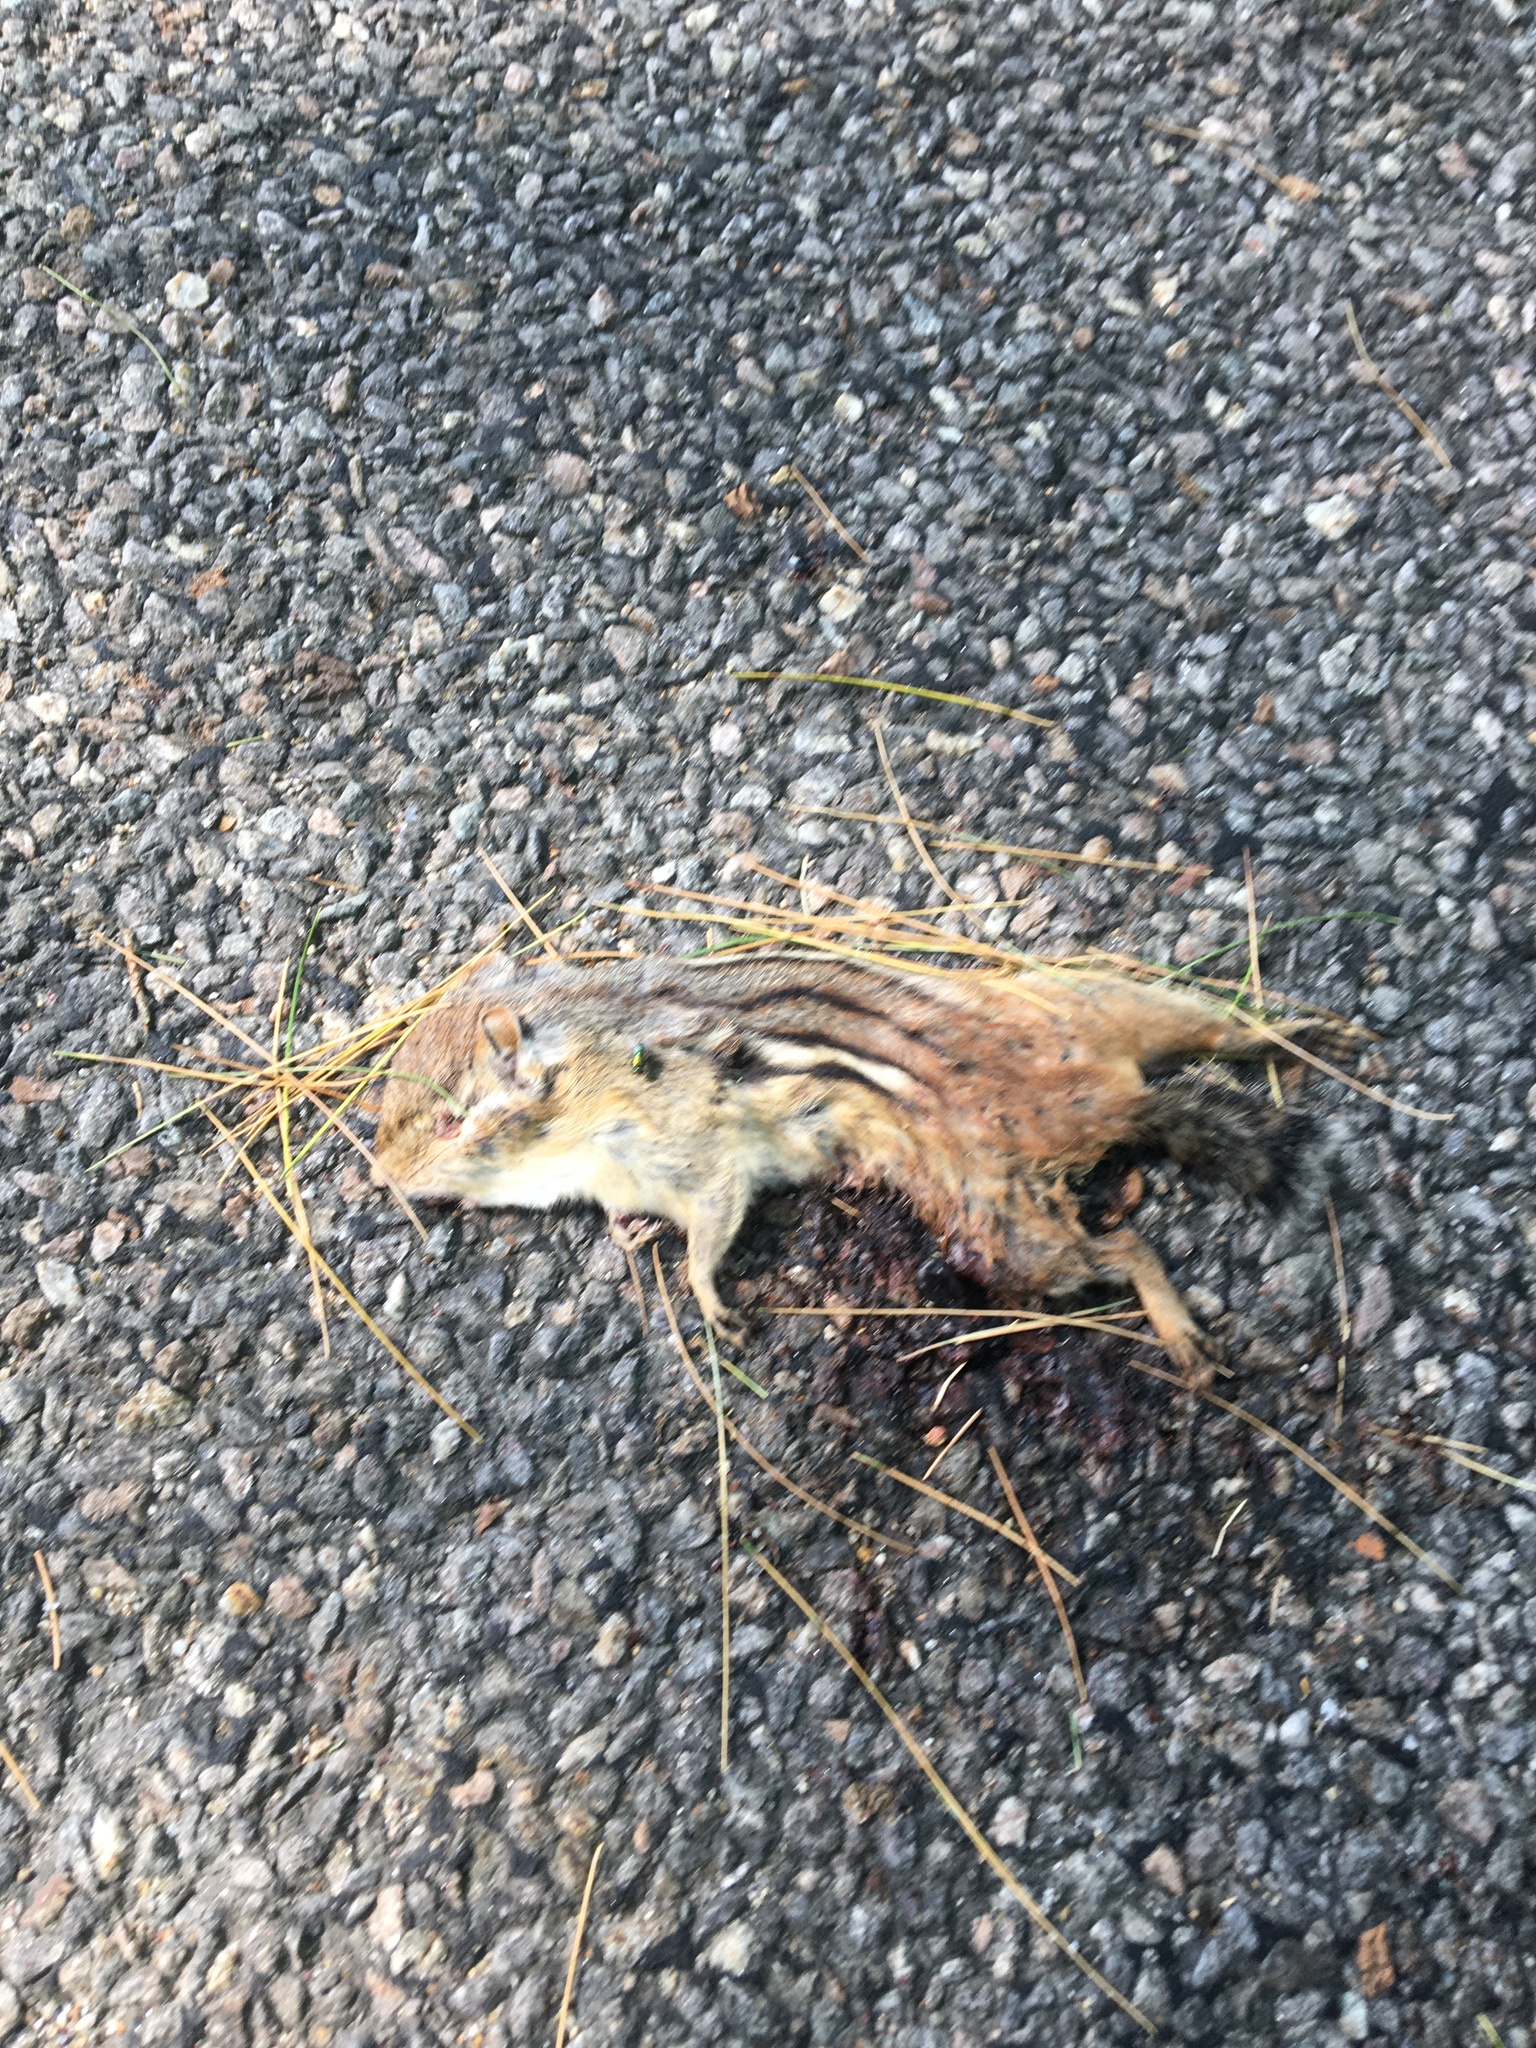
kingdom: Animalia
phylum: Chordata
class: Mammalia
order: Rodentia
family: Sciuridae
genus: Tamias
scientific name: Tamias striatus
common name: Eastern chipmunk
